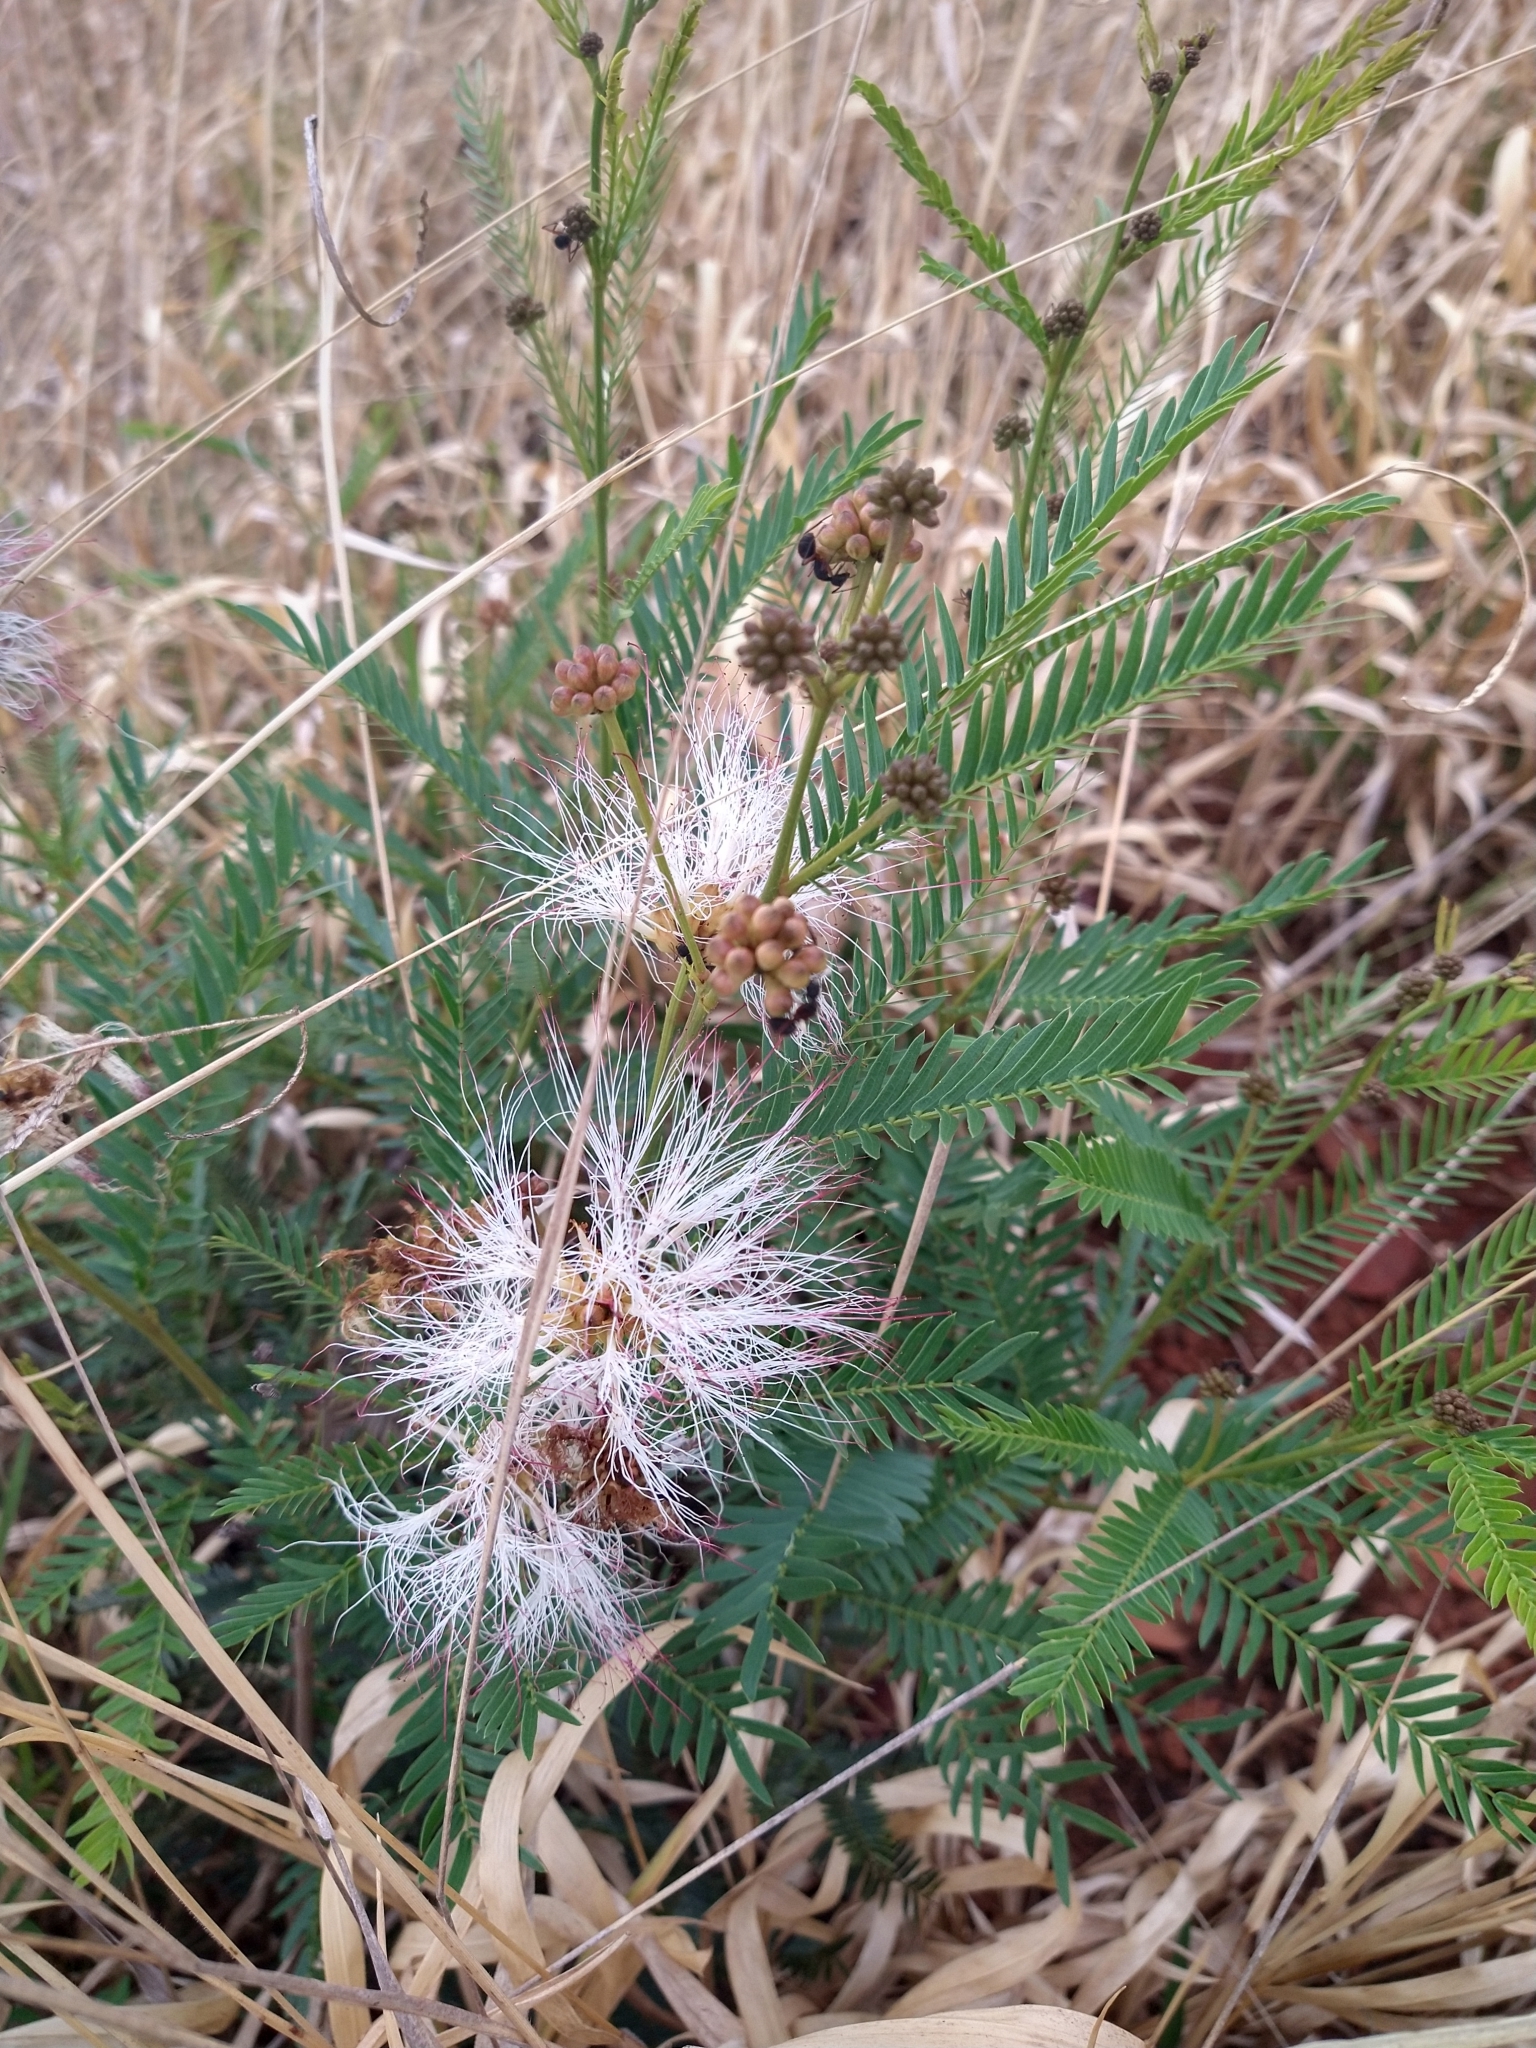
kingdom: Plantae
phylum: Tracheophyta
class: Magnoliopsida
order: Fabales
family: Fabaceae
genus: Calliandra
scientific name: Calliandra virgata
